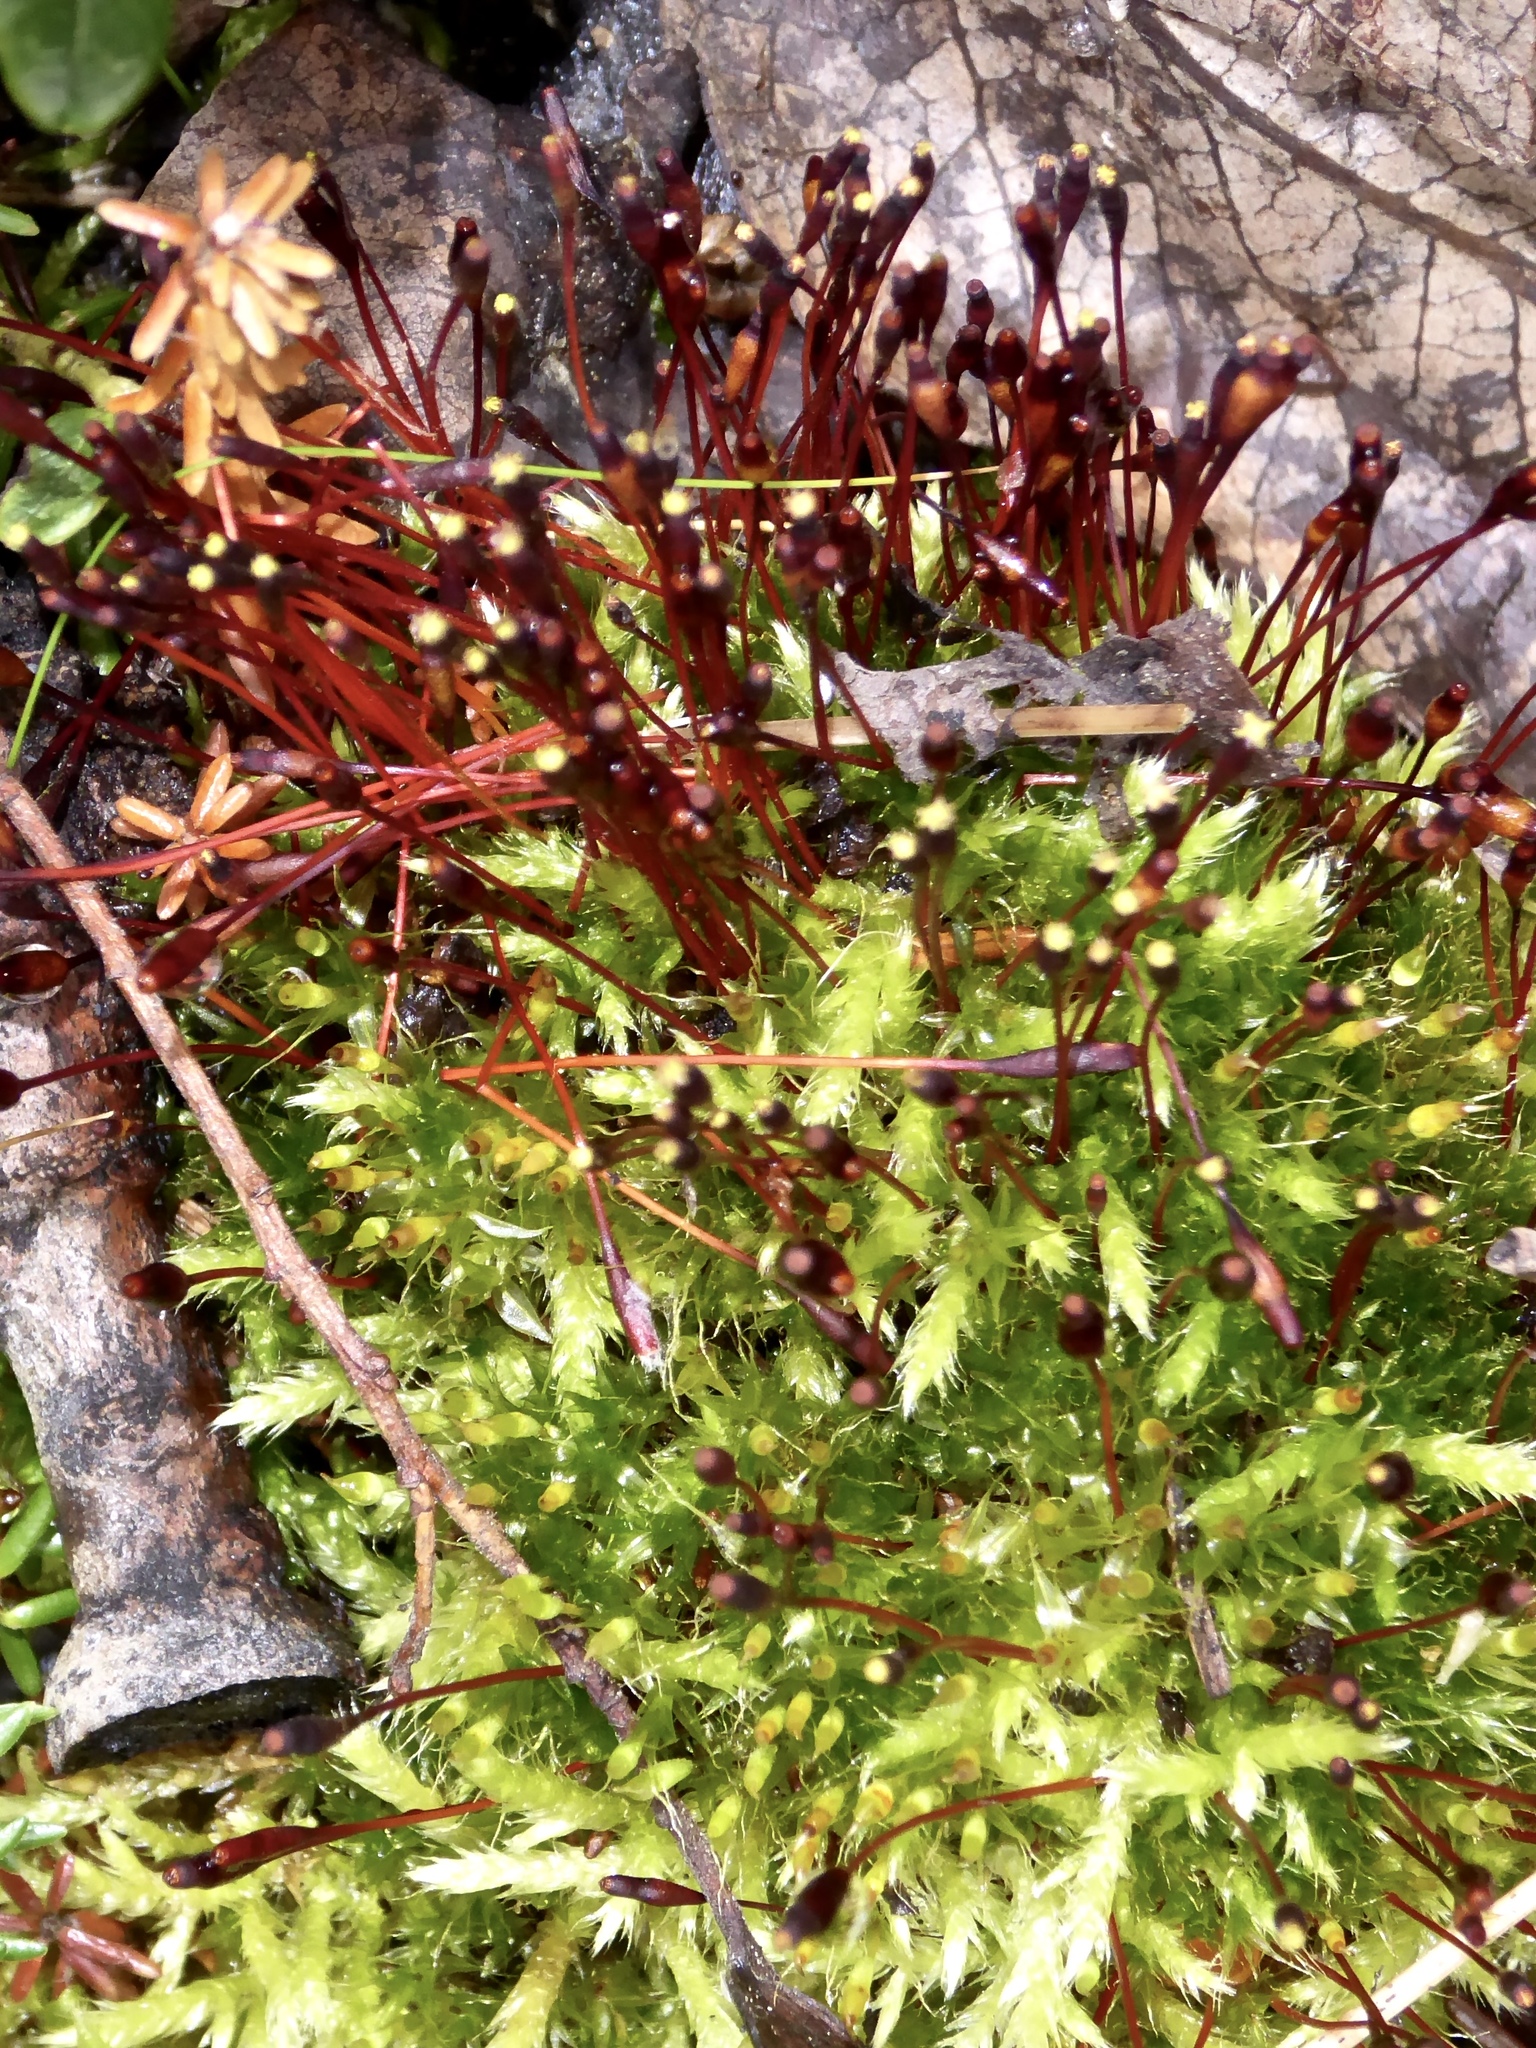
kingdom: Plantae
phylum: Bryophyta
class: Bryopsida
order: Splachnales
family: Splachnaceae
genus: Tetraplodon
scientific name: Tetraplodon mnioides
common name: Entire-leaved nitrogen moss
